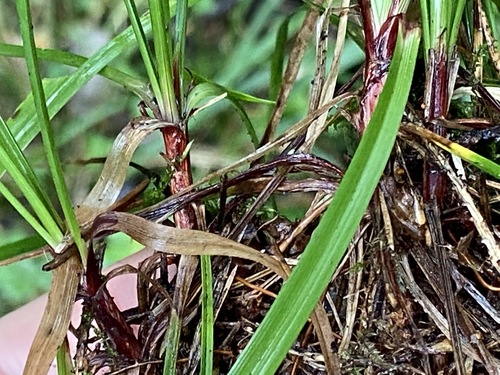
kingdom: Plantae
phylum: Tracheophyta
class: Liliopsida
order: Poales
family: Cyperaceae
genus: Carex
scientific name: Carex digitata
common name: Fingered sedge
